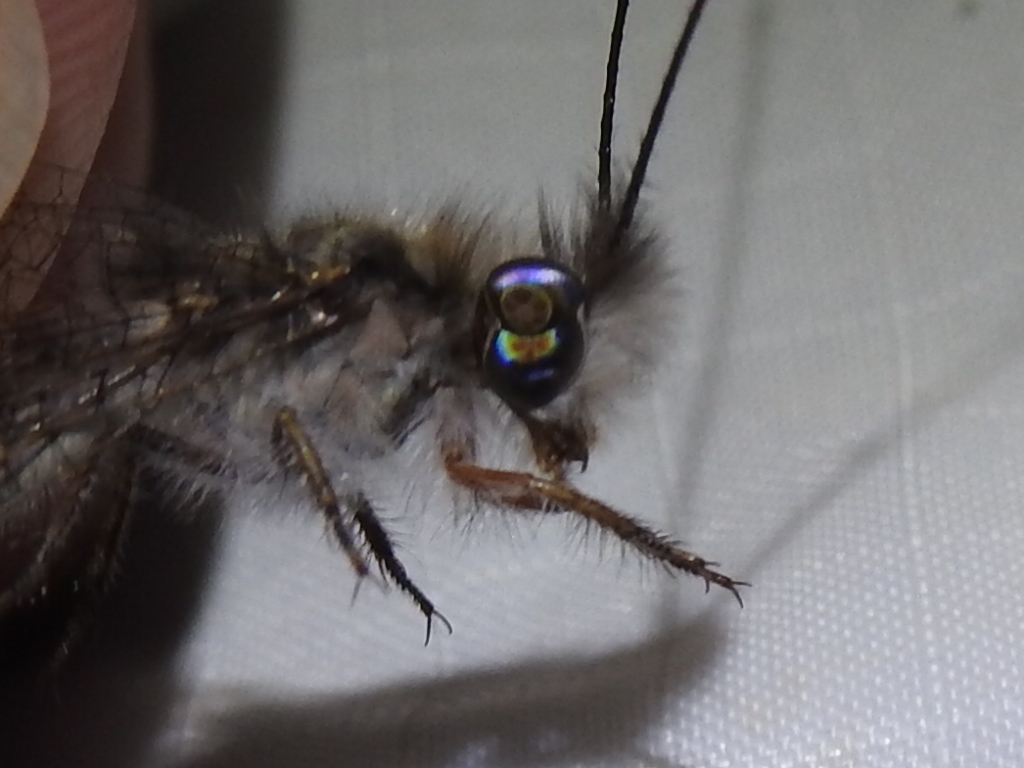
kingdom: Animalia
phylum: Arthropoda
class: Insecta
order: Neuroptera
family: Ascalaphidae
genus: Ululodes
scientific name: Ululodes macleayanus
